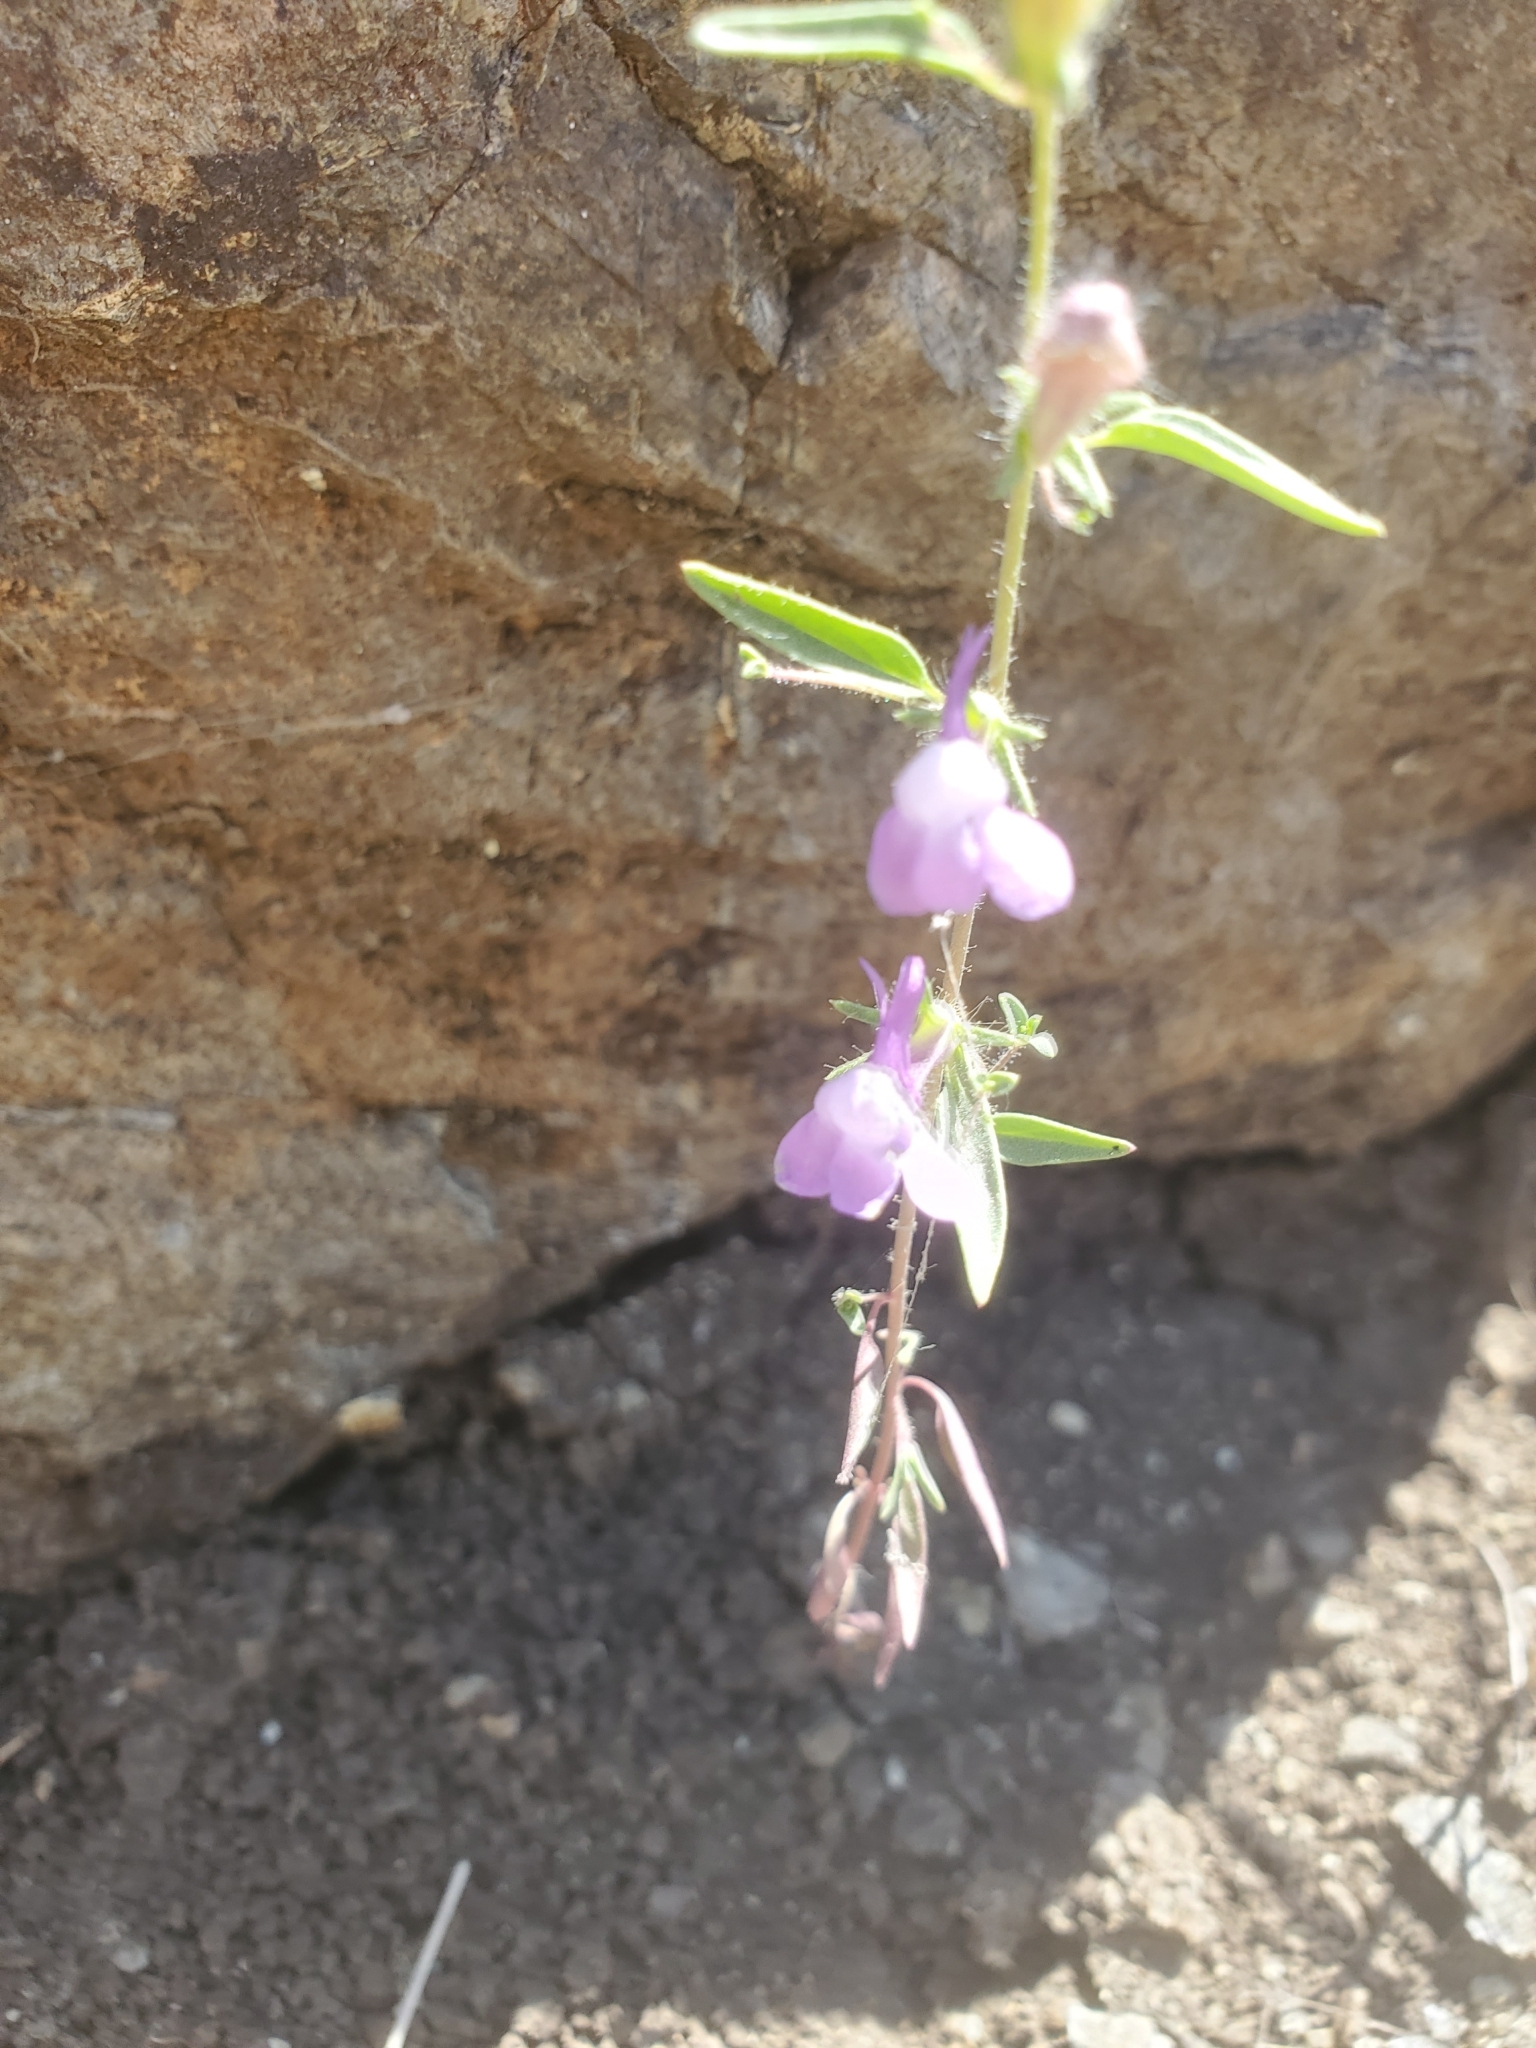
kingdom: Plantae
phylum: Tracheophyta
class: Magnoliopsida
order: Lamiales
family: Plantaginaceae
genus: Sairocarpus
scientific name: Sairocarpus vexillocalyculatus
